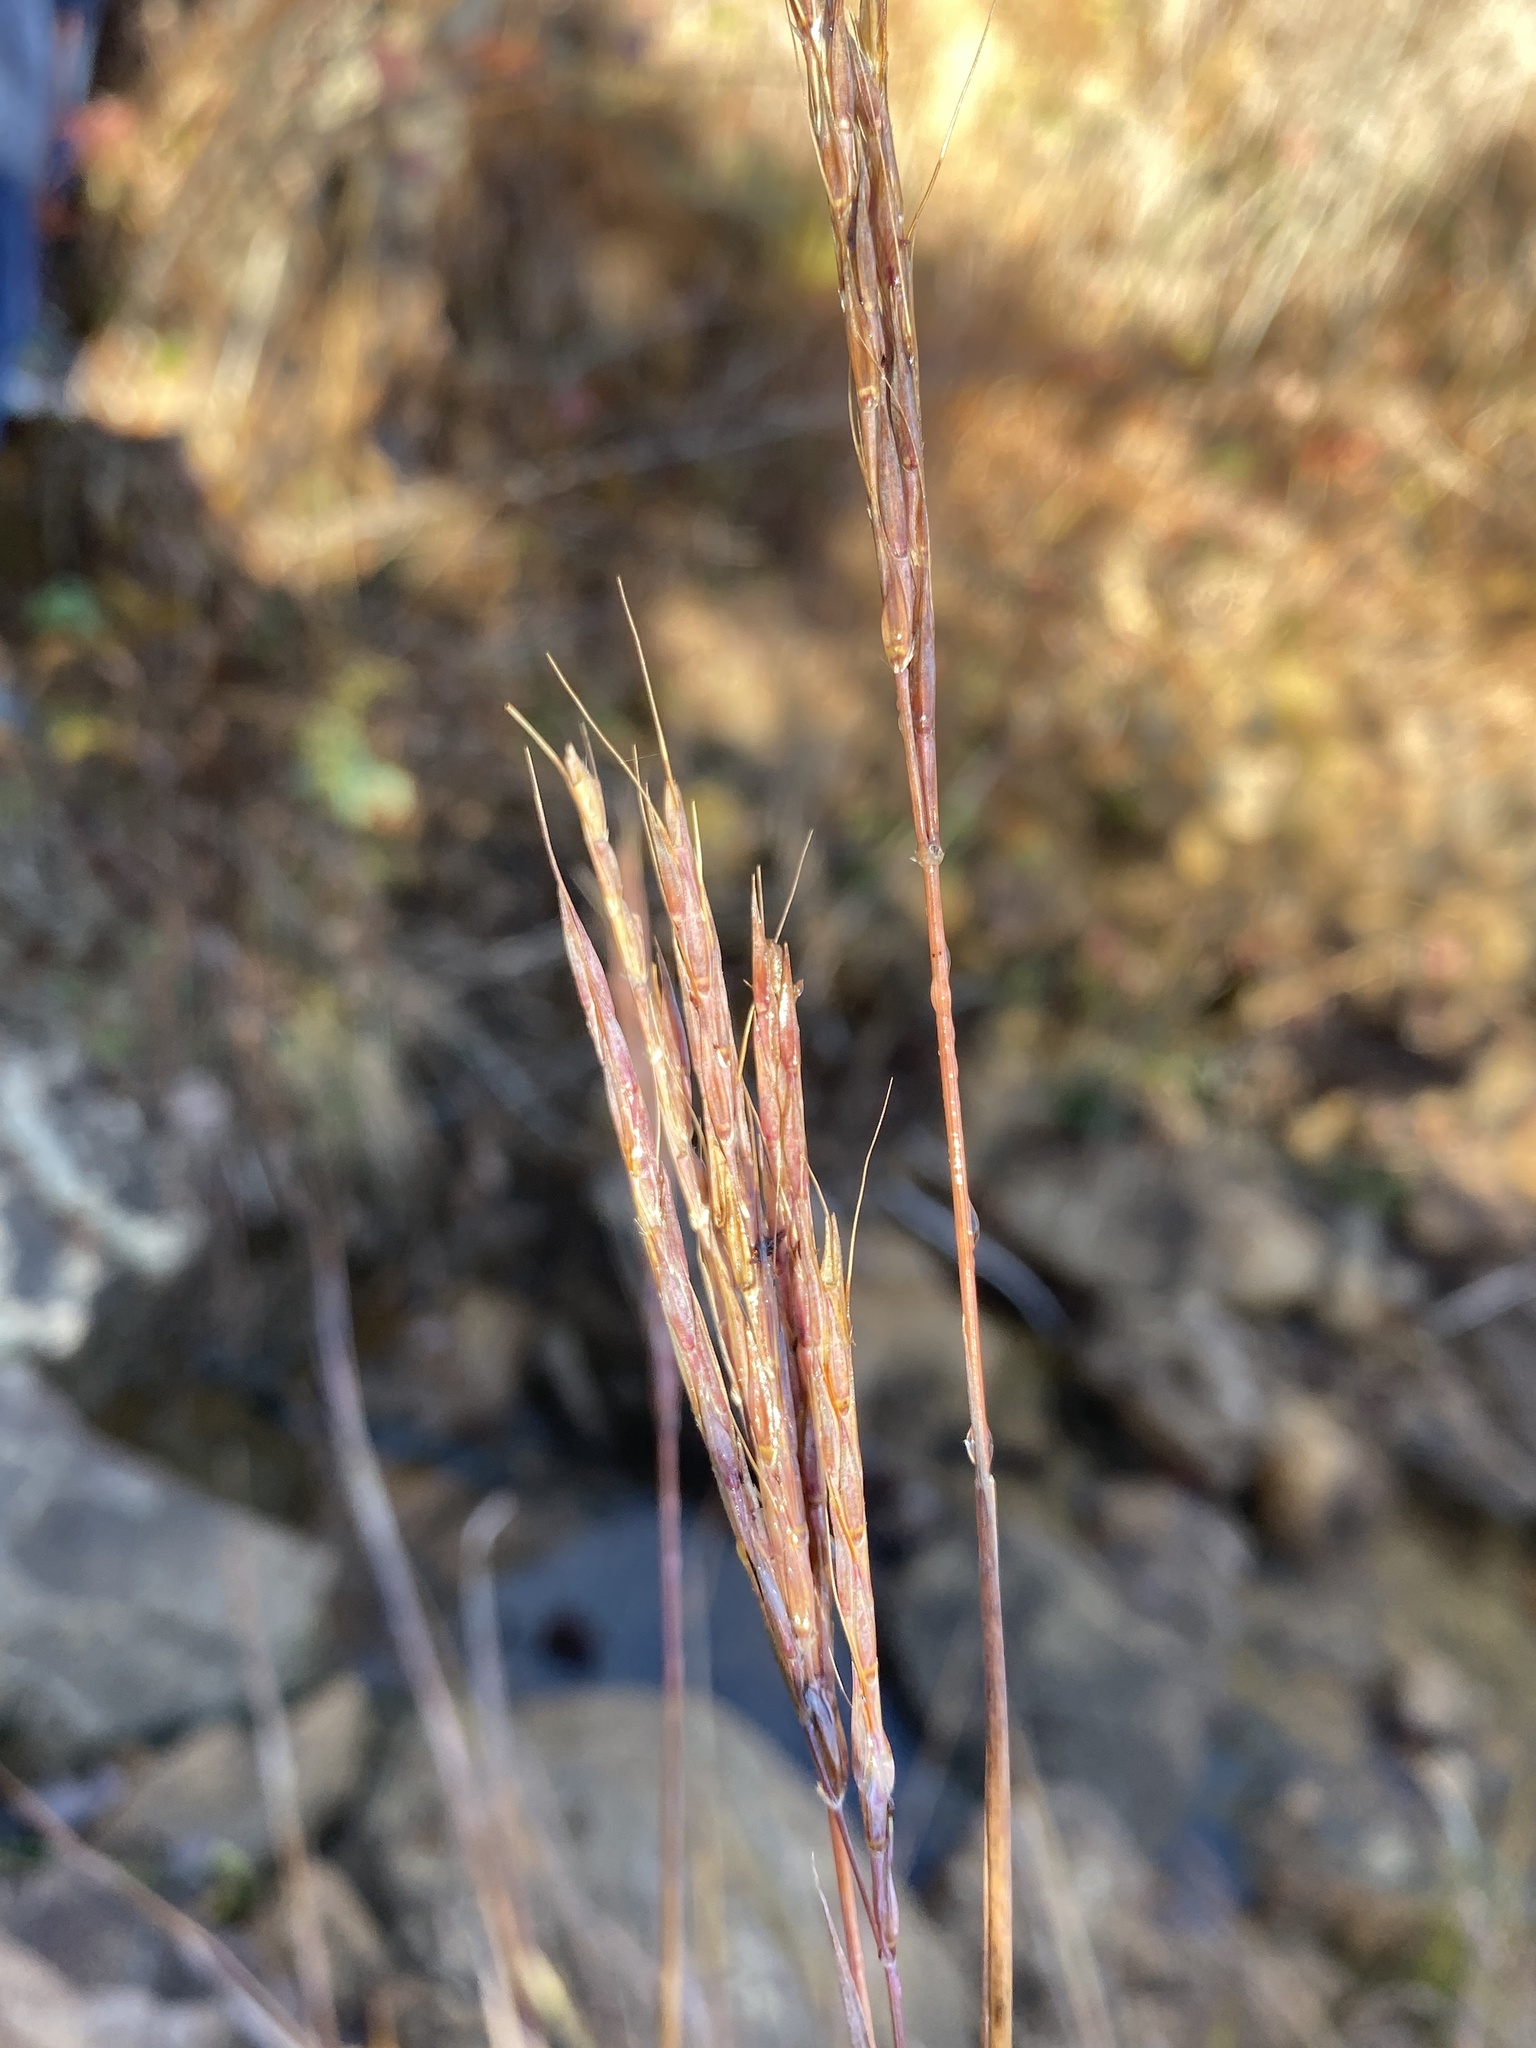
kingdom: Plantae
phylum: Tracheophyta
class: Liliopsida
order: Poales
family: Poaceae
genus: Andropogon
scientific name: Andropogon gerardi
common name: Big bluestem
